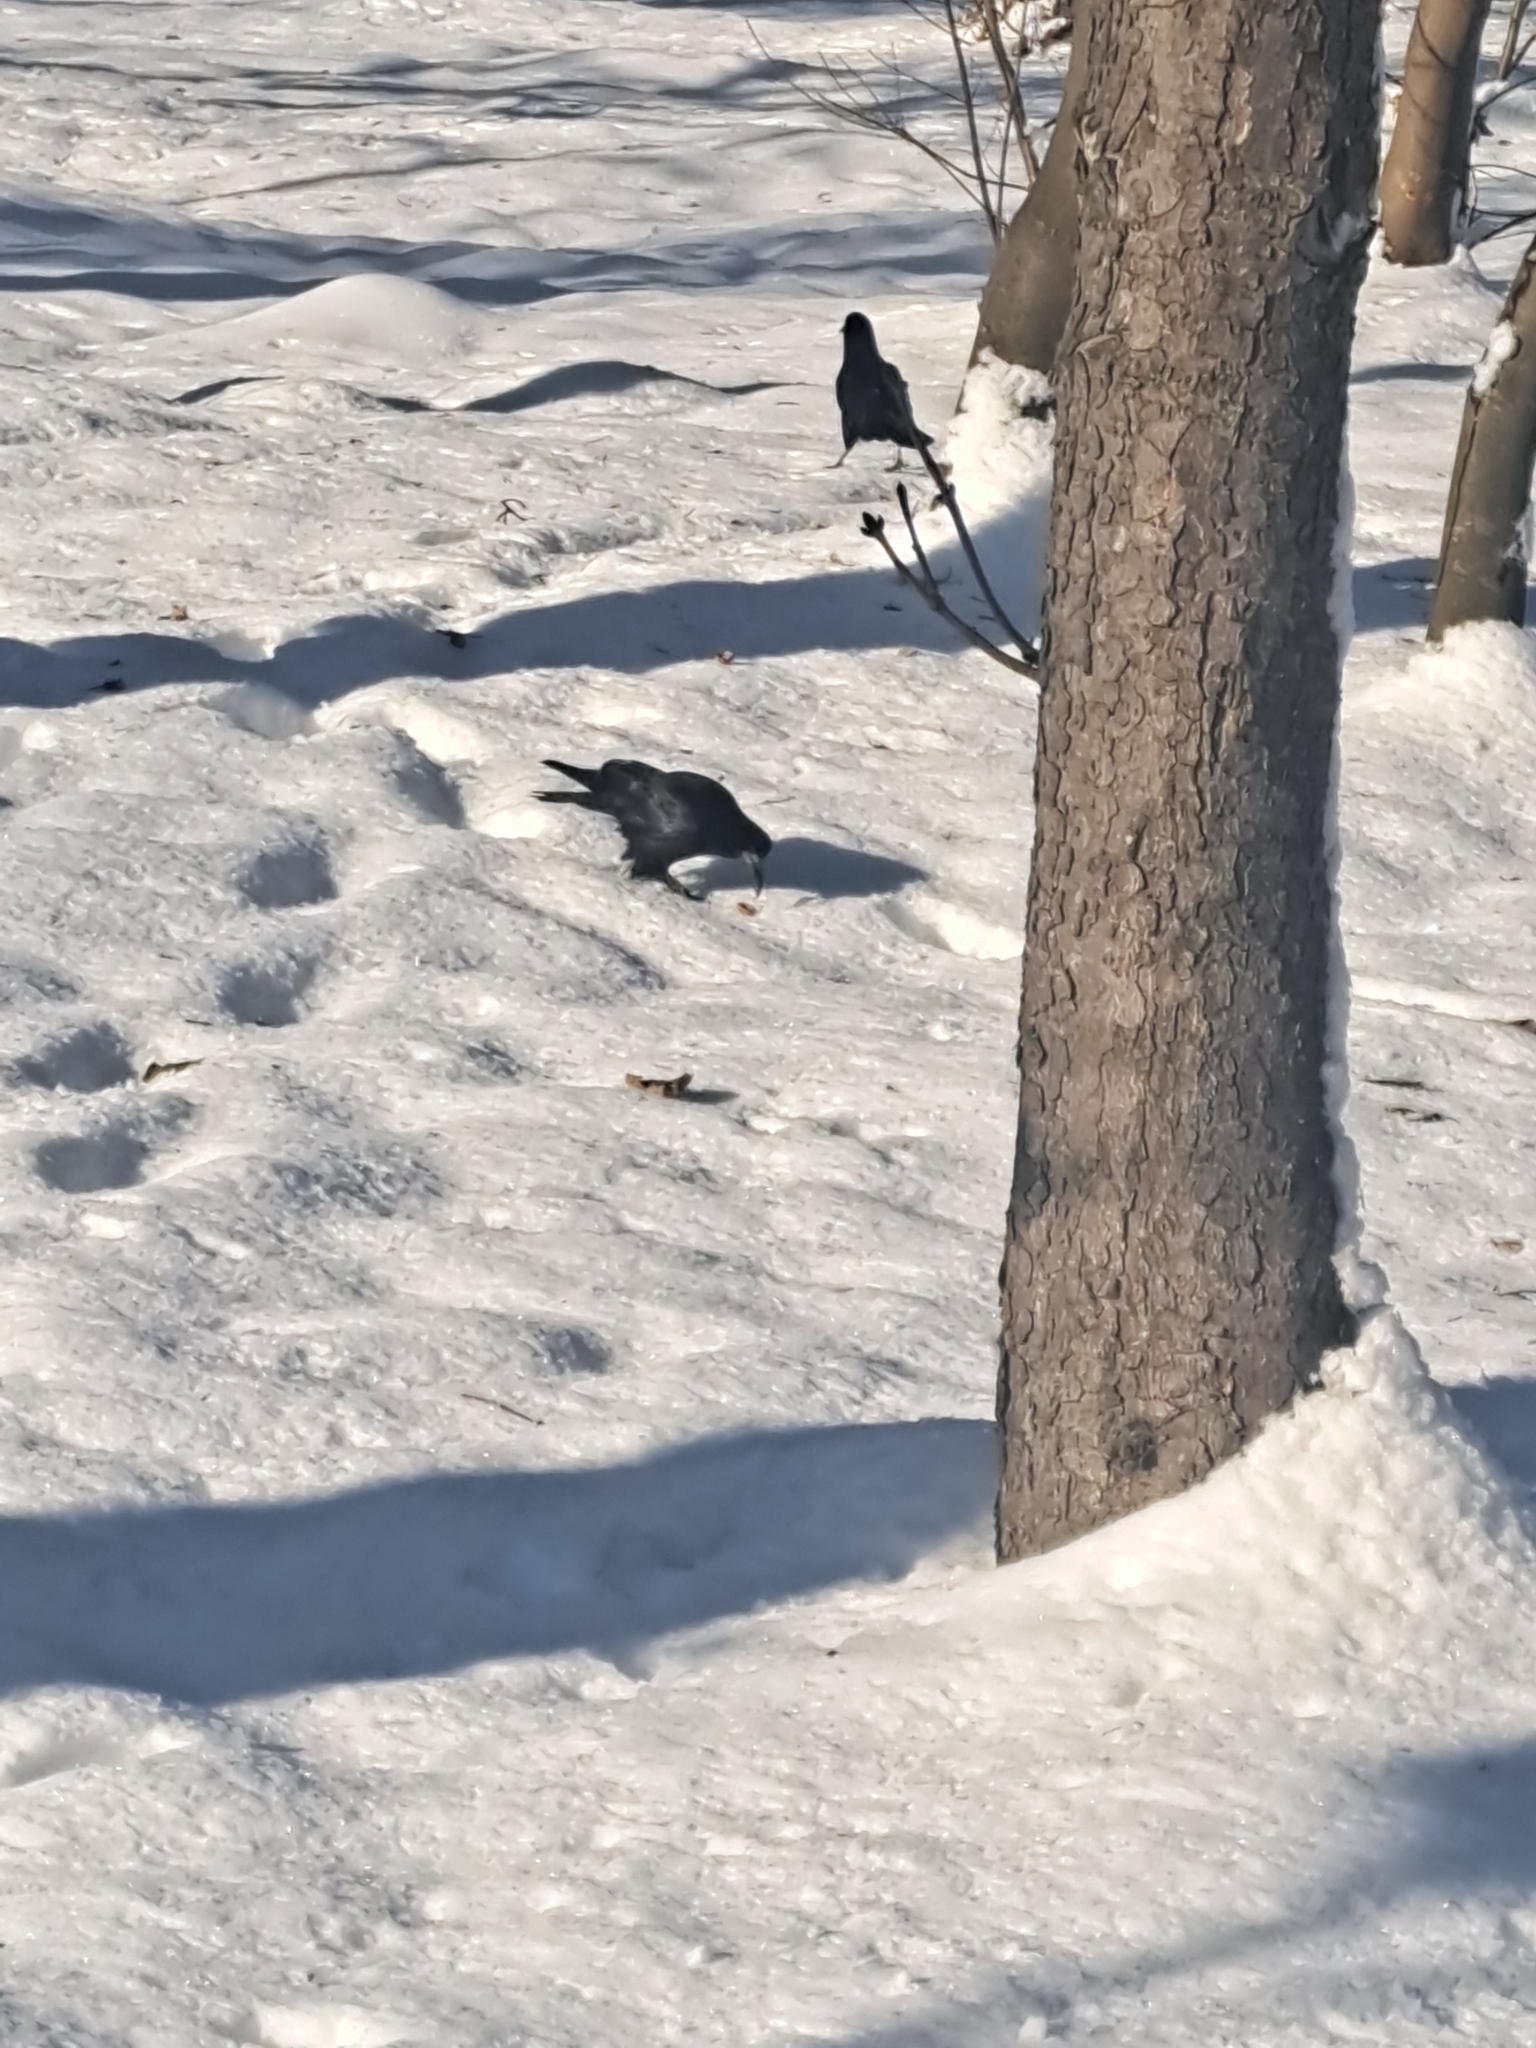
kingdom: Animalia
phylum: Chordata
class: Aves
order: Passeriformes
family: Corvidae
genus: Corvus
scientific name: Corvus frugilegus
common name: Rook
